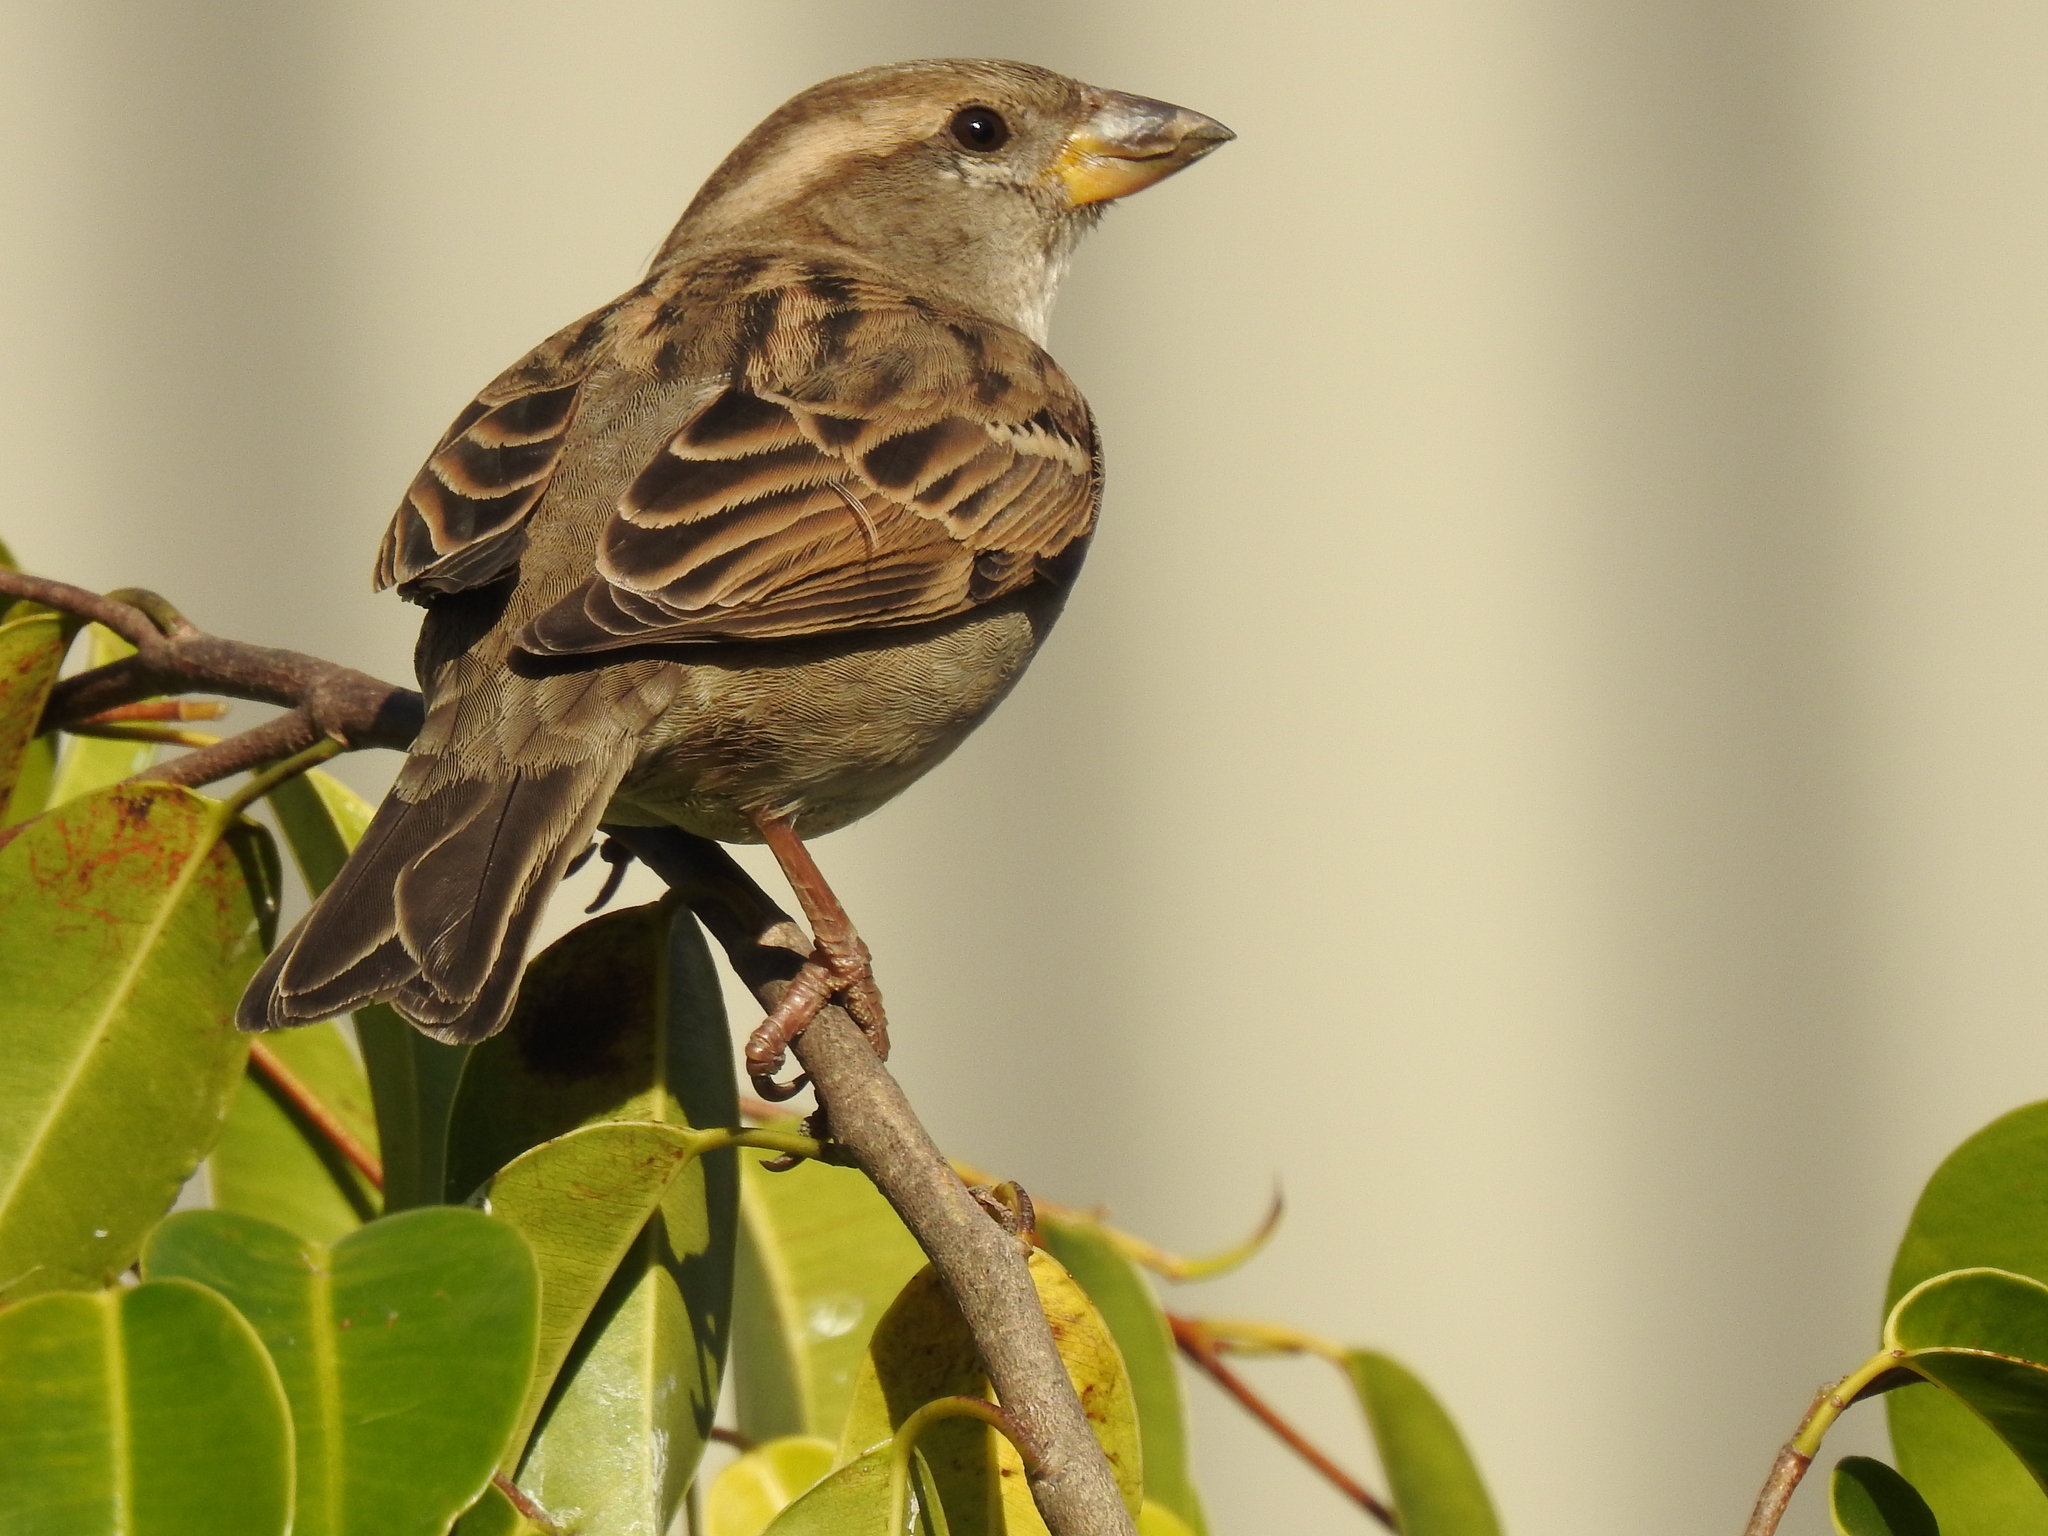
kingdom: Animalia
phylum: Chordata
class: Aves
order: Passeriformes
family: Passeridae
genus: Passer
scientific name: Passer domesticus
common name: House sparrow
